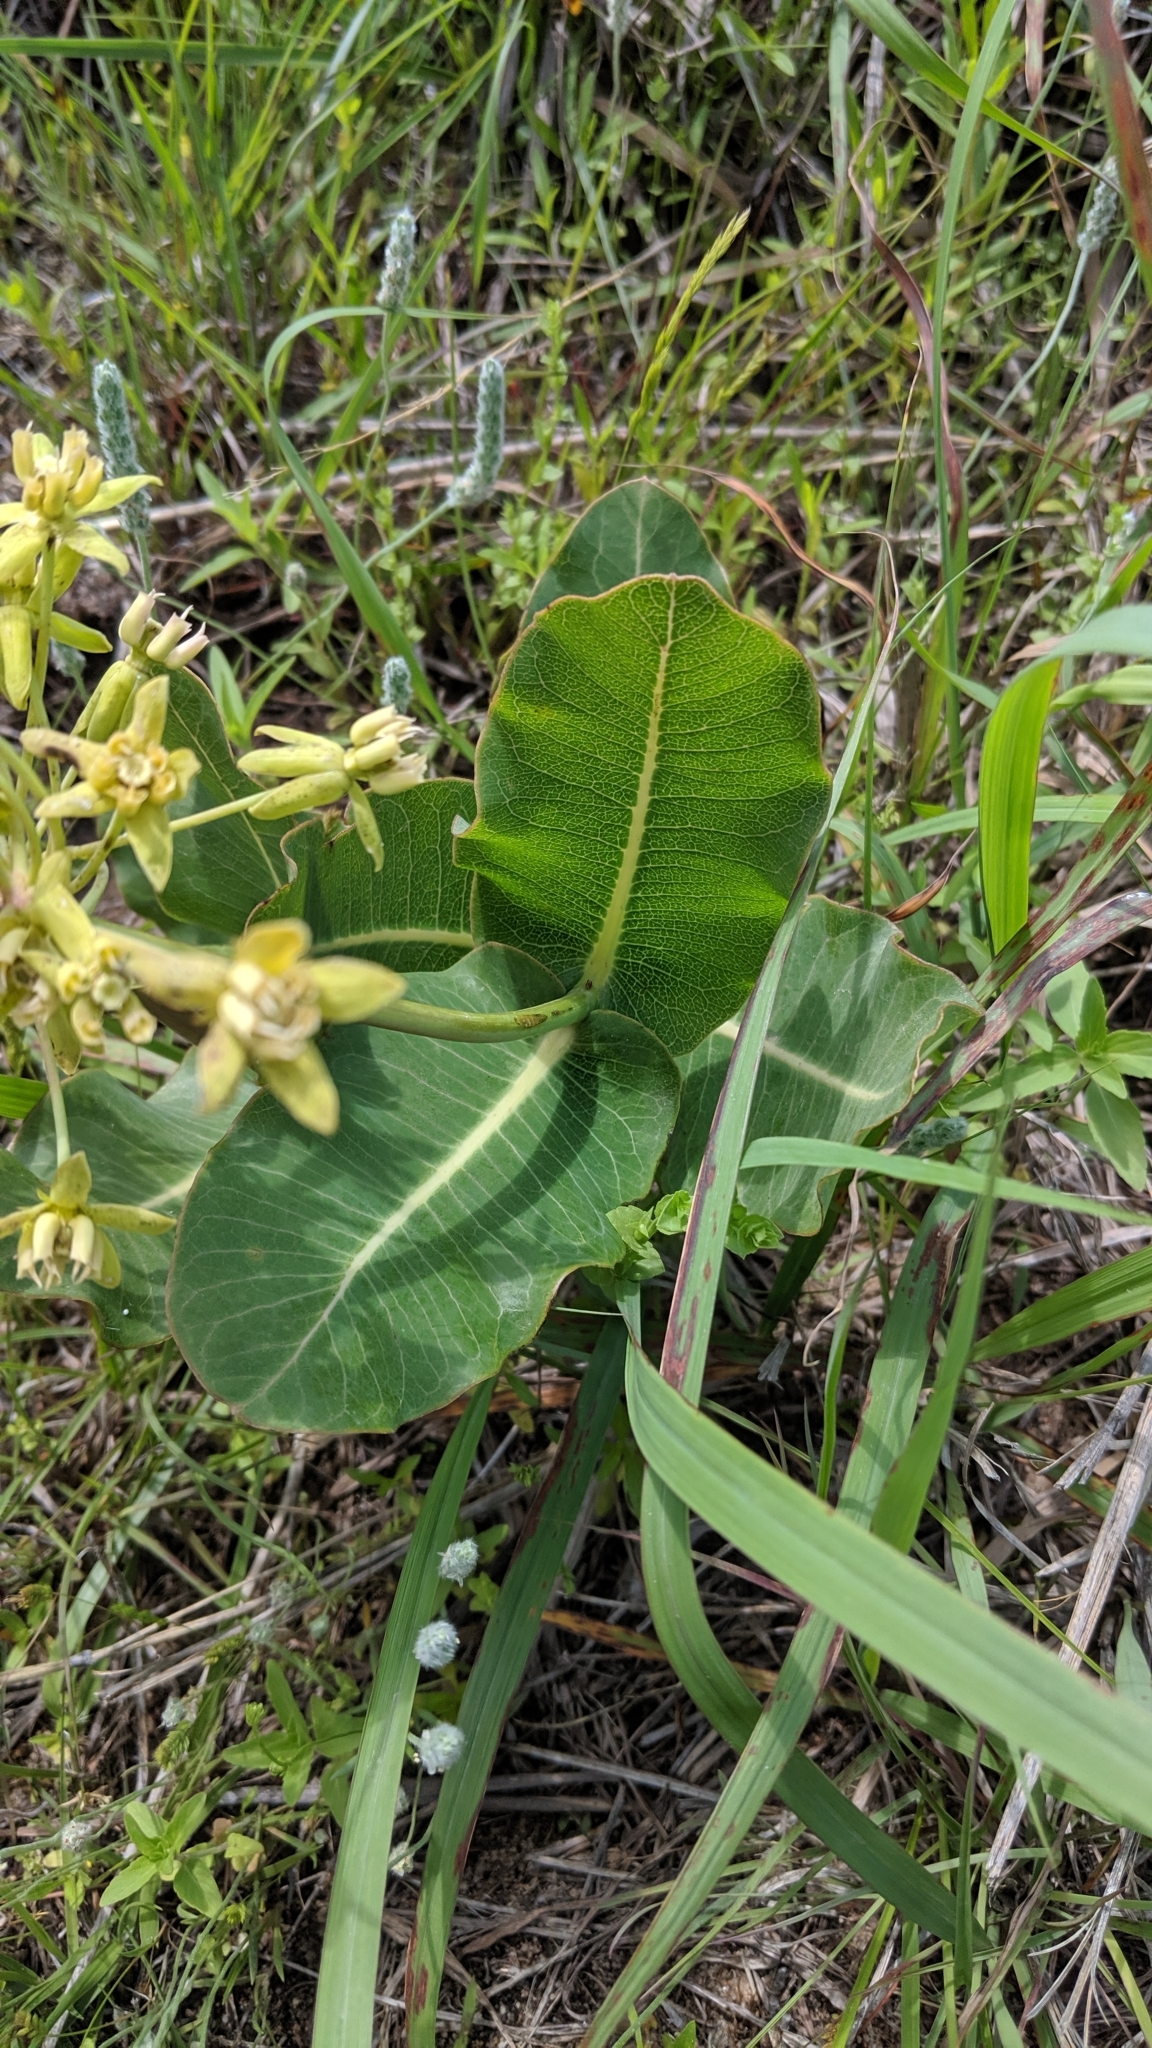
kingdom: Plantae
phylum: Tracheophyta
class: Magnoliopsida
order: Gentianales
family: Apocynaceae
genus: Asclepias
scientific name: Asclepias amplexicaulis
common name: Blunt-leaf milkweed
